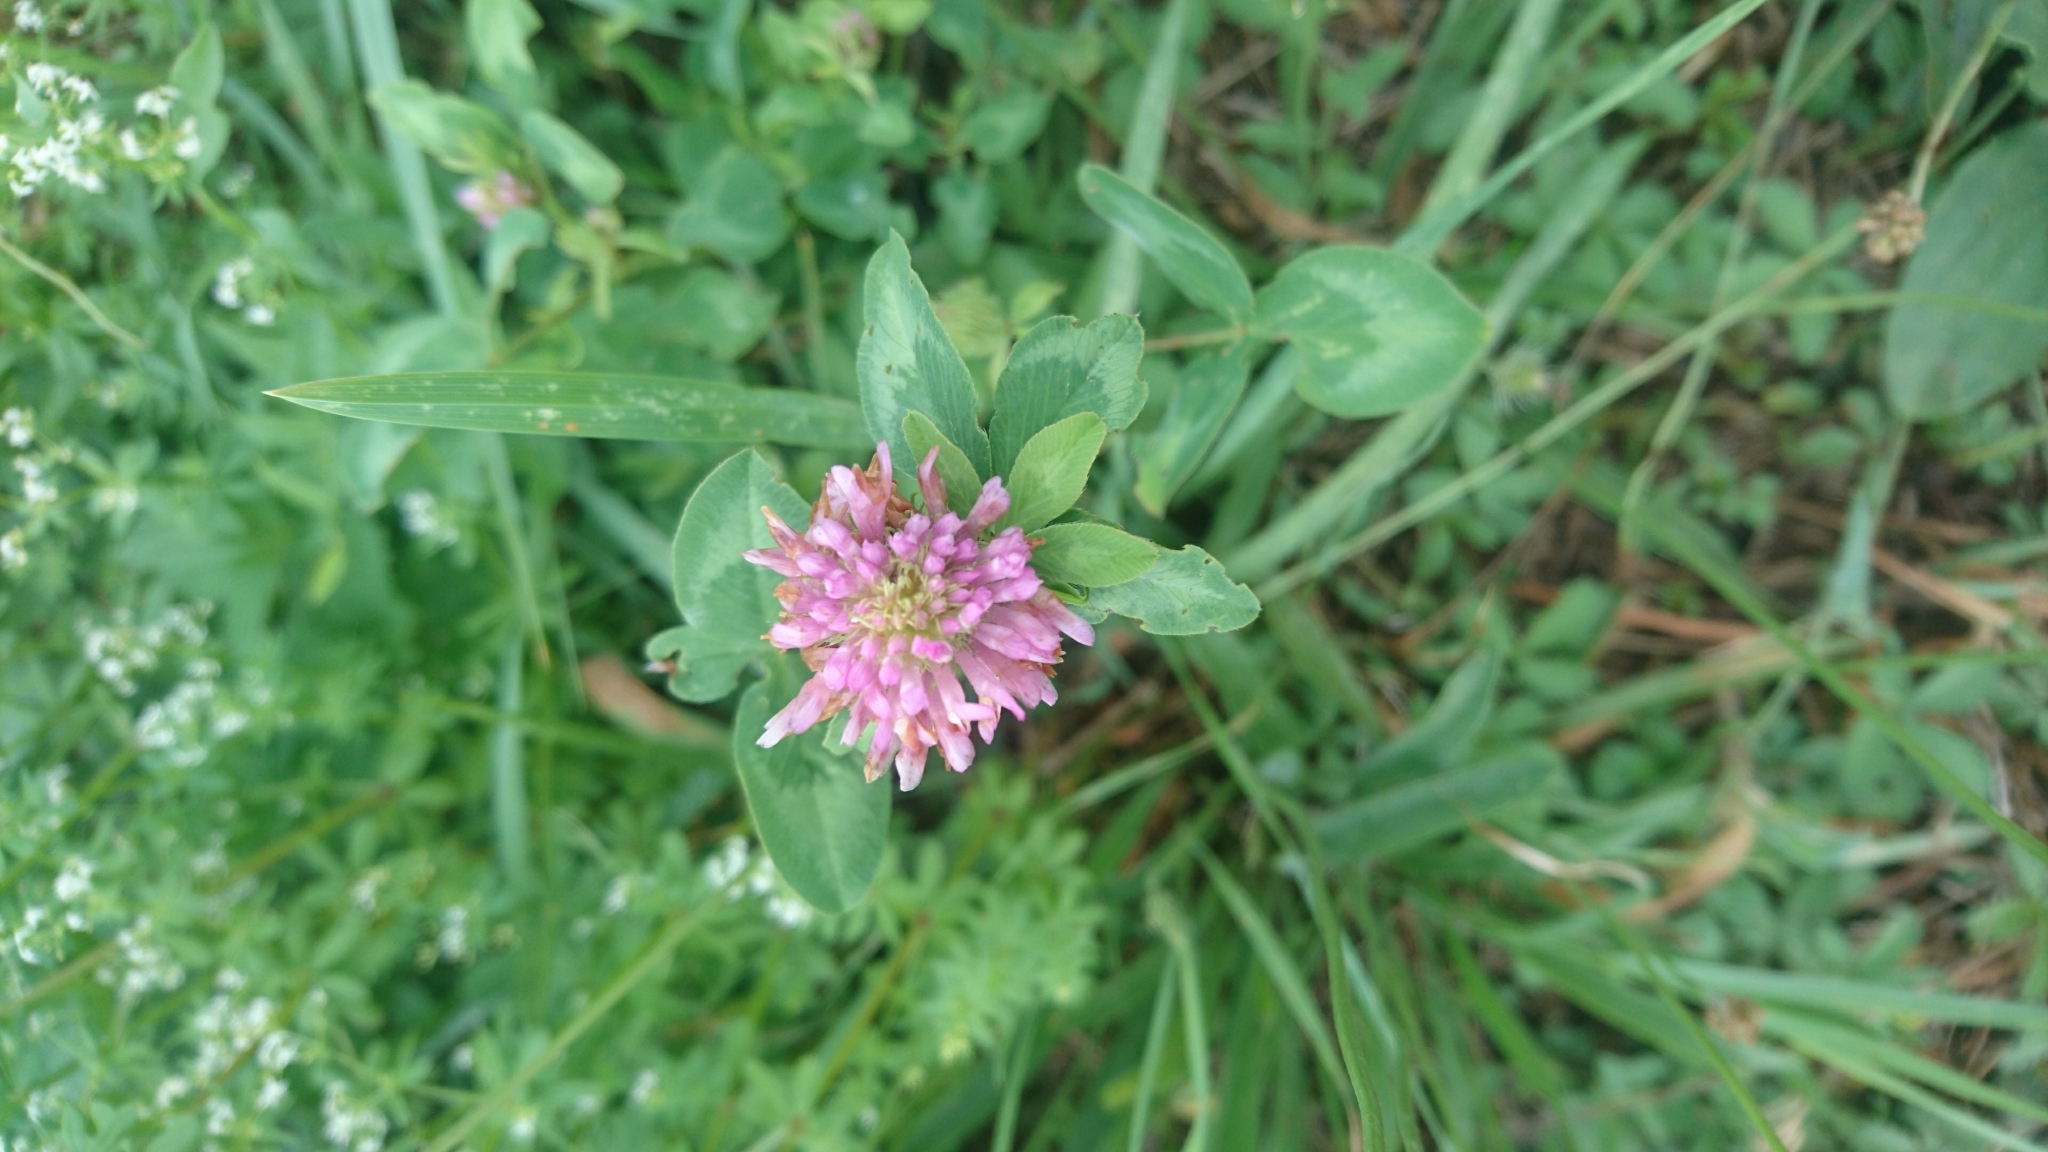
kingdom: Plantae
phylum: Tracheophyta
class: Magnoliopsida
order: Fabales
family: Fabaceae
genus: Trifolium
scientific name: Trifolium pratense
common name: Red clover
